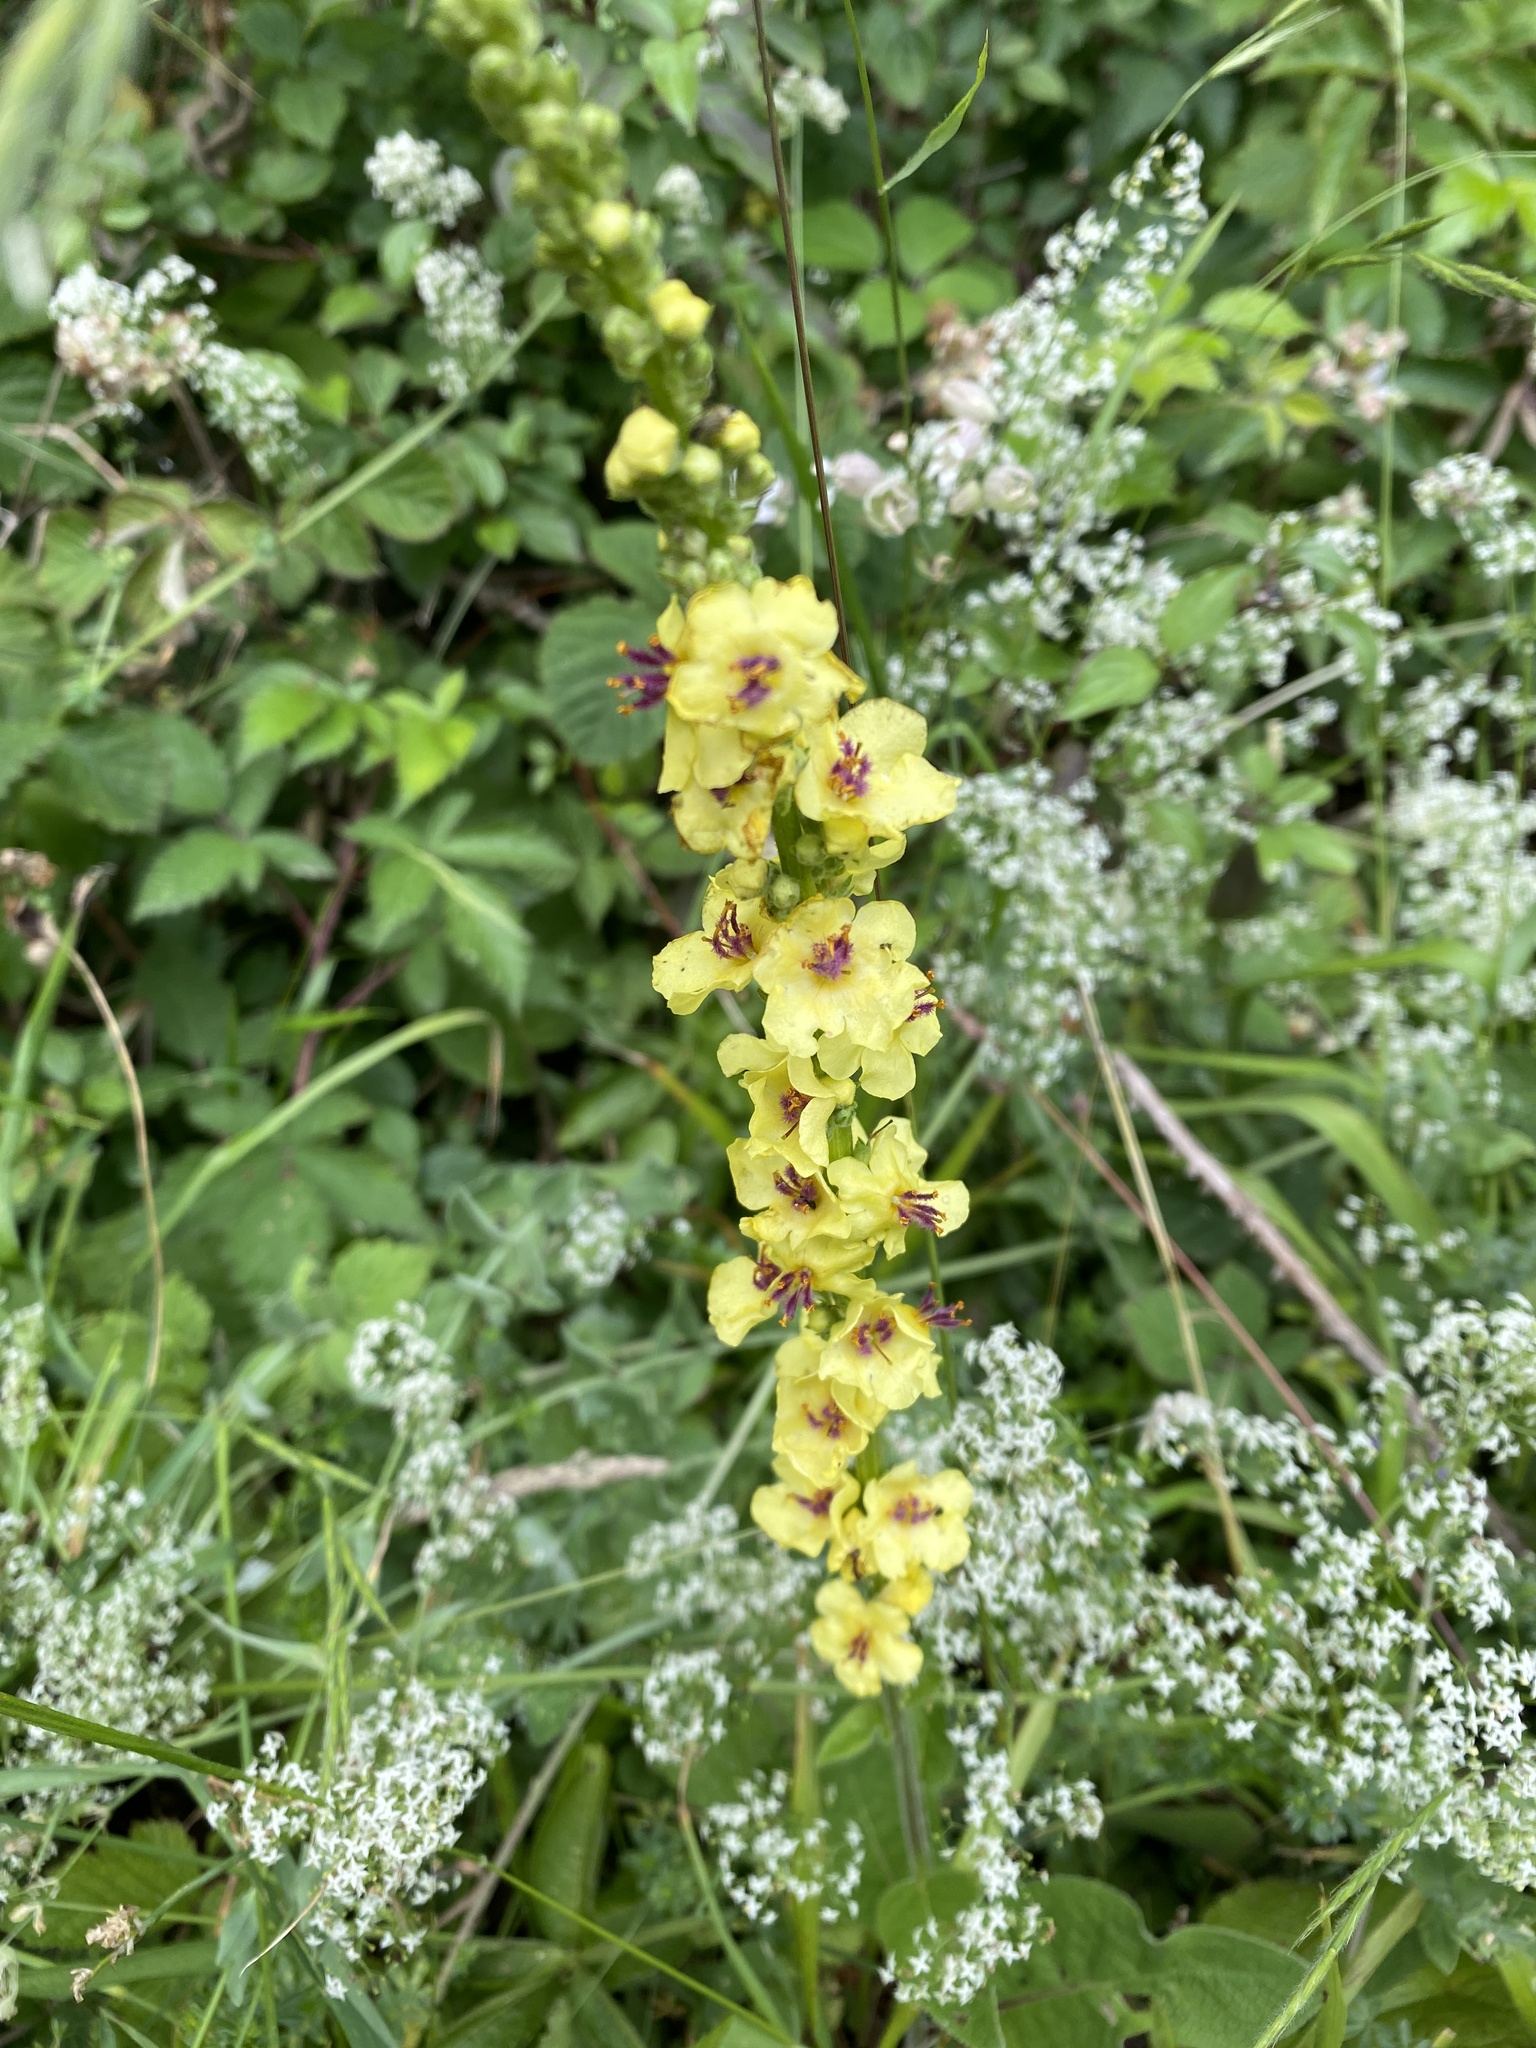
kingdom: Plantae
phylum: Tracheophyta
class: Magnoliopsida
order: Lamiales
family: Scrophulariaceae
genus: Verbascum
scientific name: Verbascum nigrum
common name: Dark mullein
